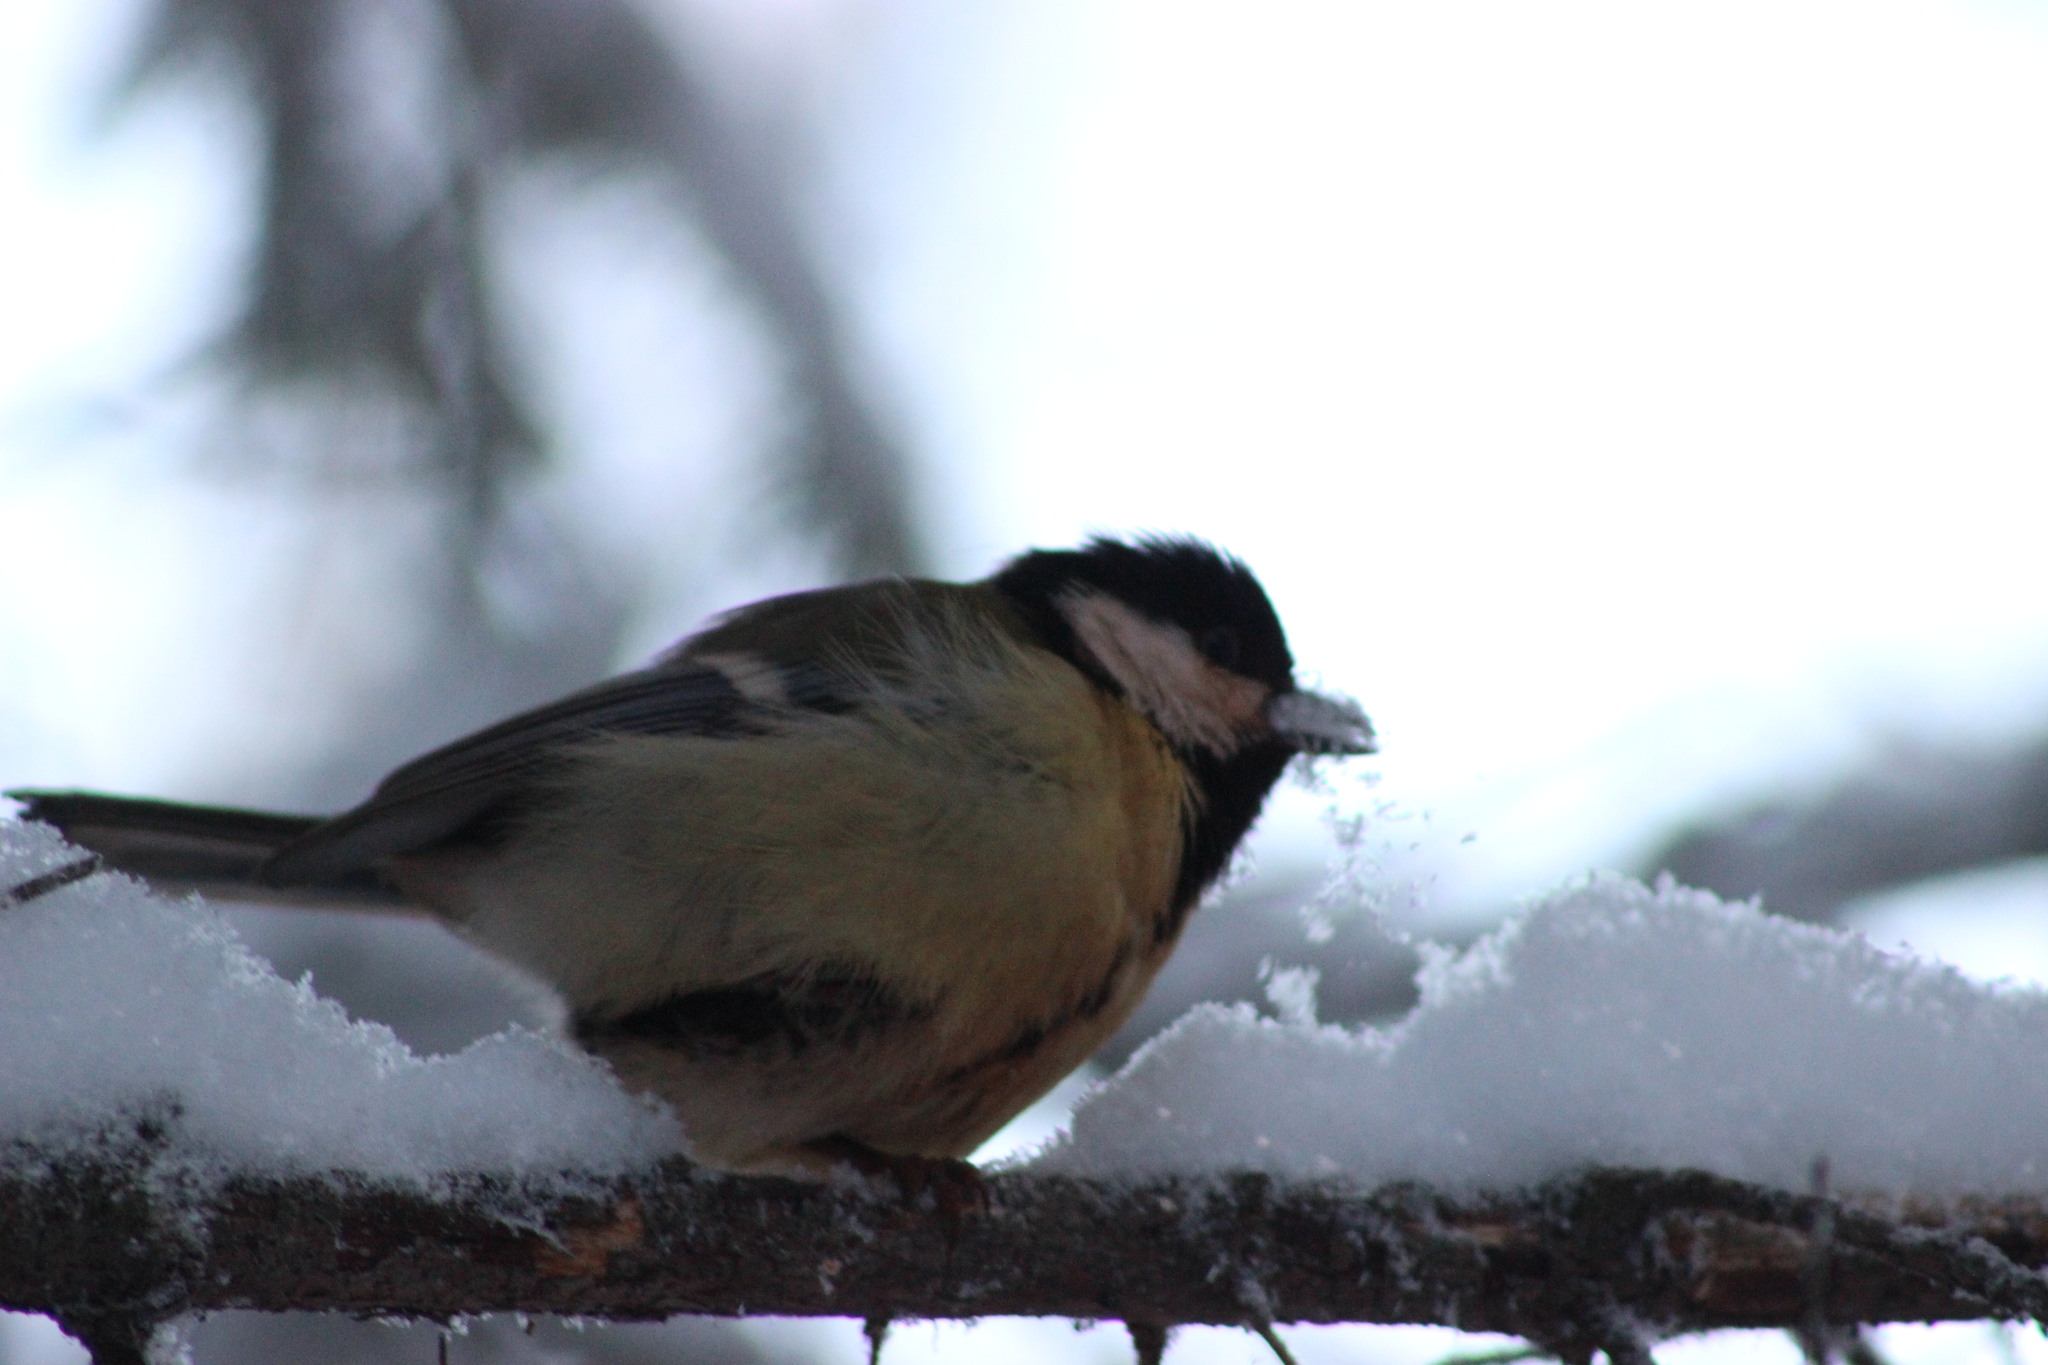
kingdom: Animalia
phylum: Chordata
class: Aves
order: Passeriformes
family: Paridae
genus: Parus
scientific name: Parus major
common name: Great tit
